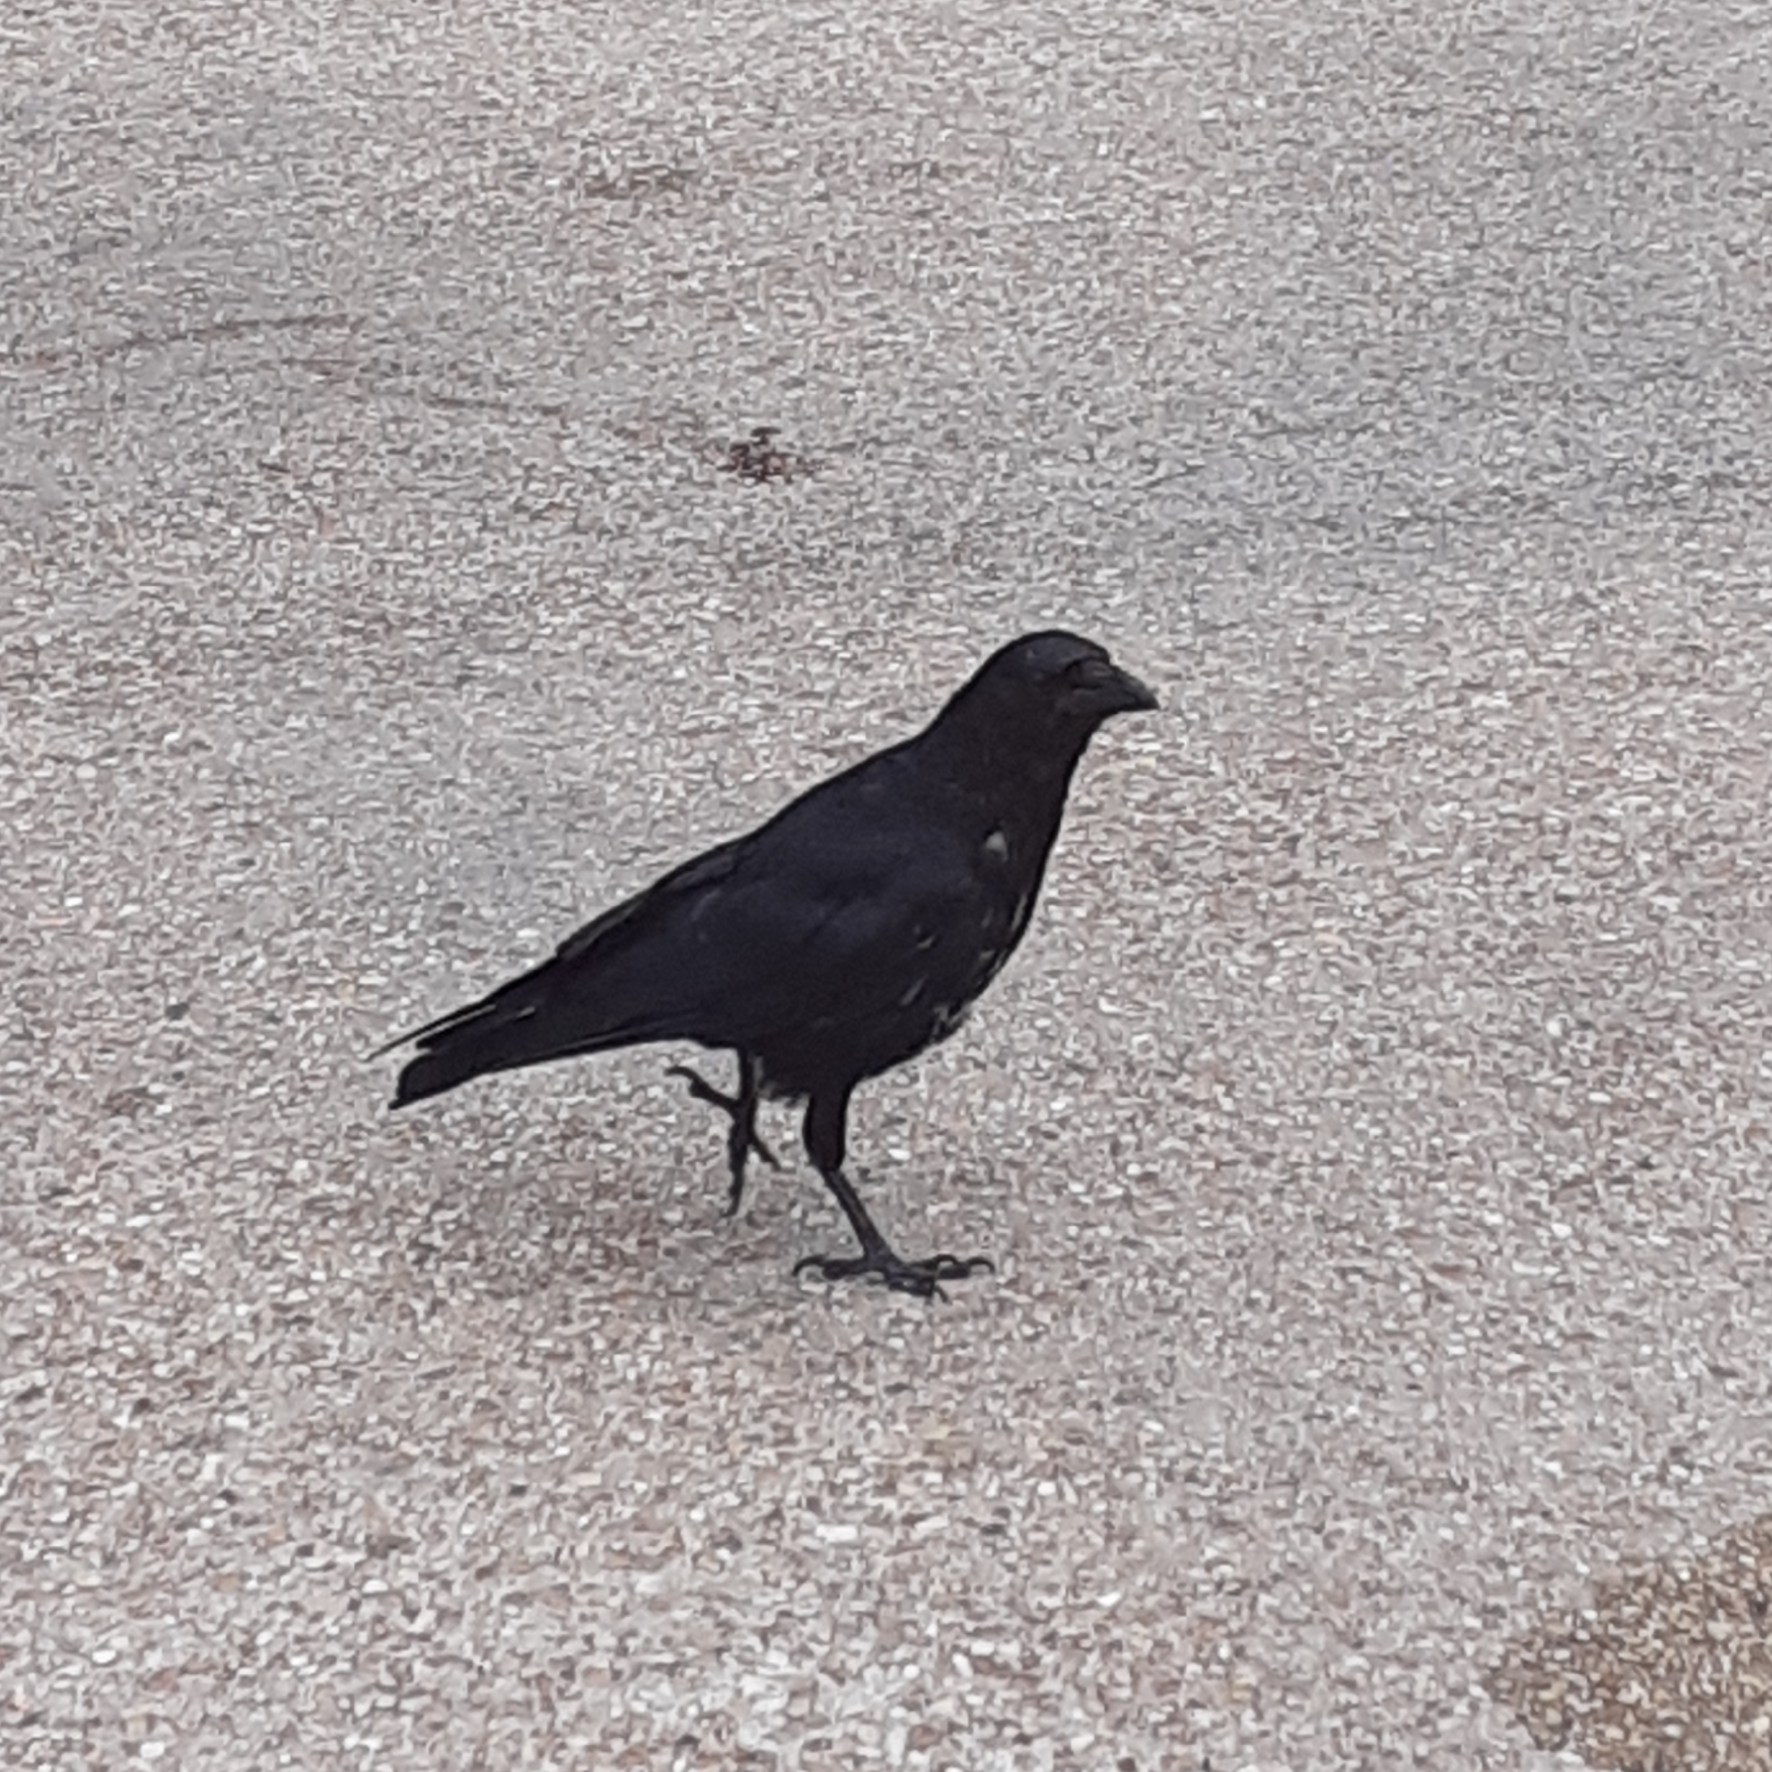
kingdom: Animalia
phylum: Chordata
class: Aves
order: Passeriformes
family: Corvidae
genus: Corvus
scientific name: Corvus corone
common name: Carrion crow
